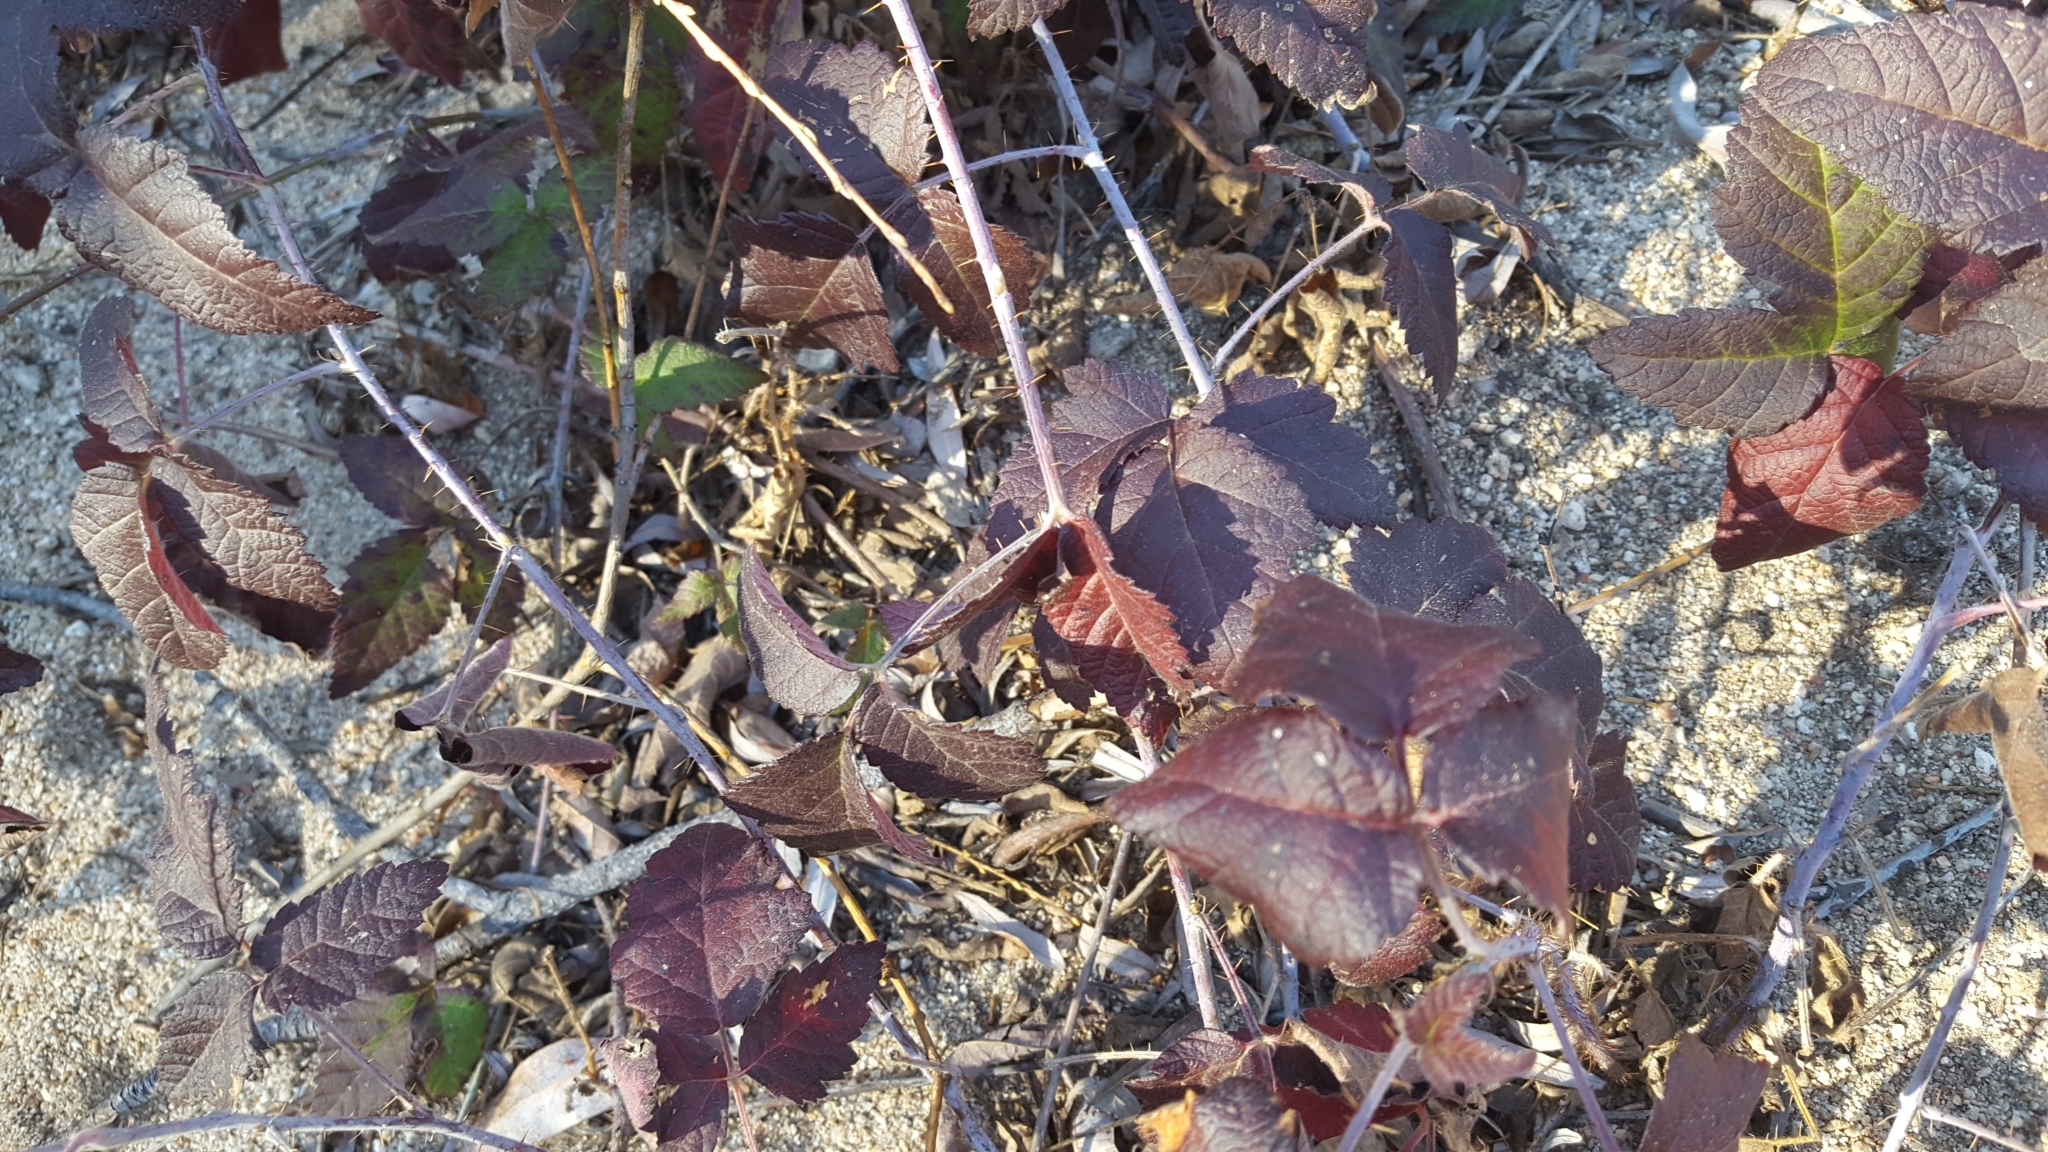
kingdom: Plantae
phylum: Tracheophyta
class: Magnoliopsida
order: Rosales
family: Rosaceae
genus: Rubus
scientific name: Rubus ursinus
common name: Pacific blackberry
